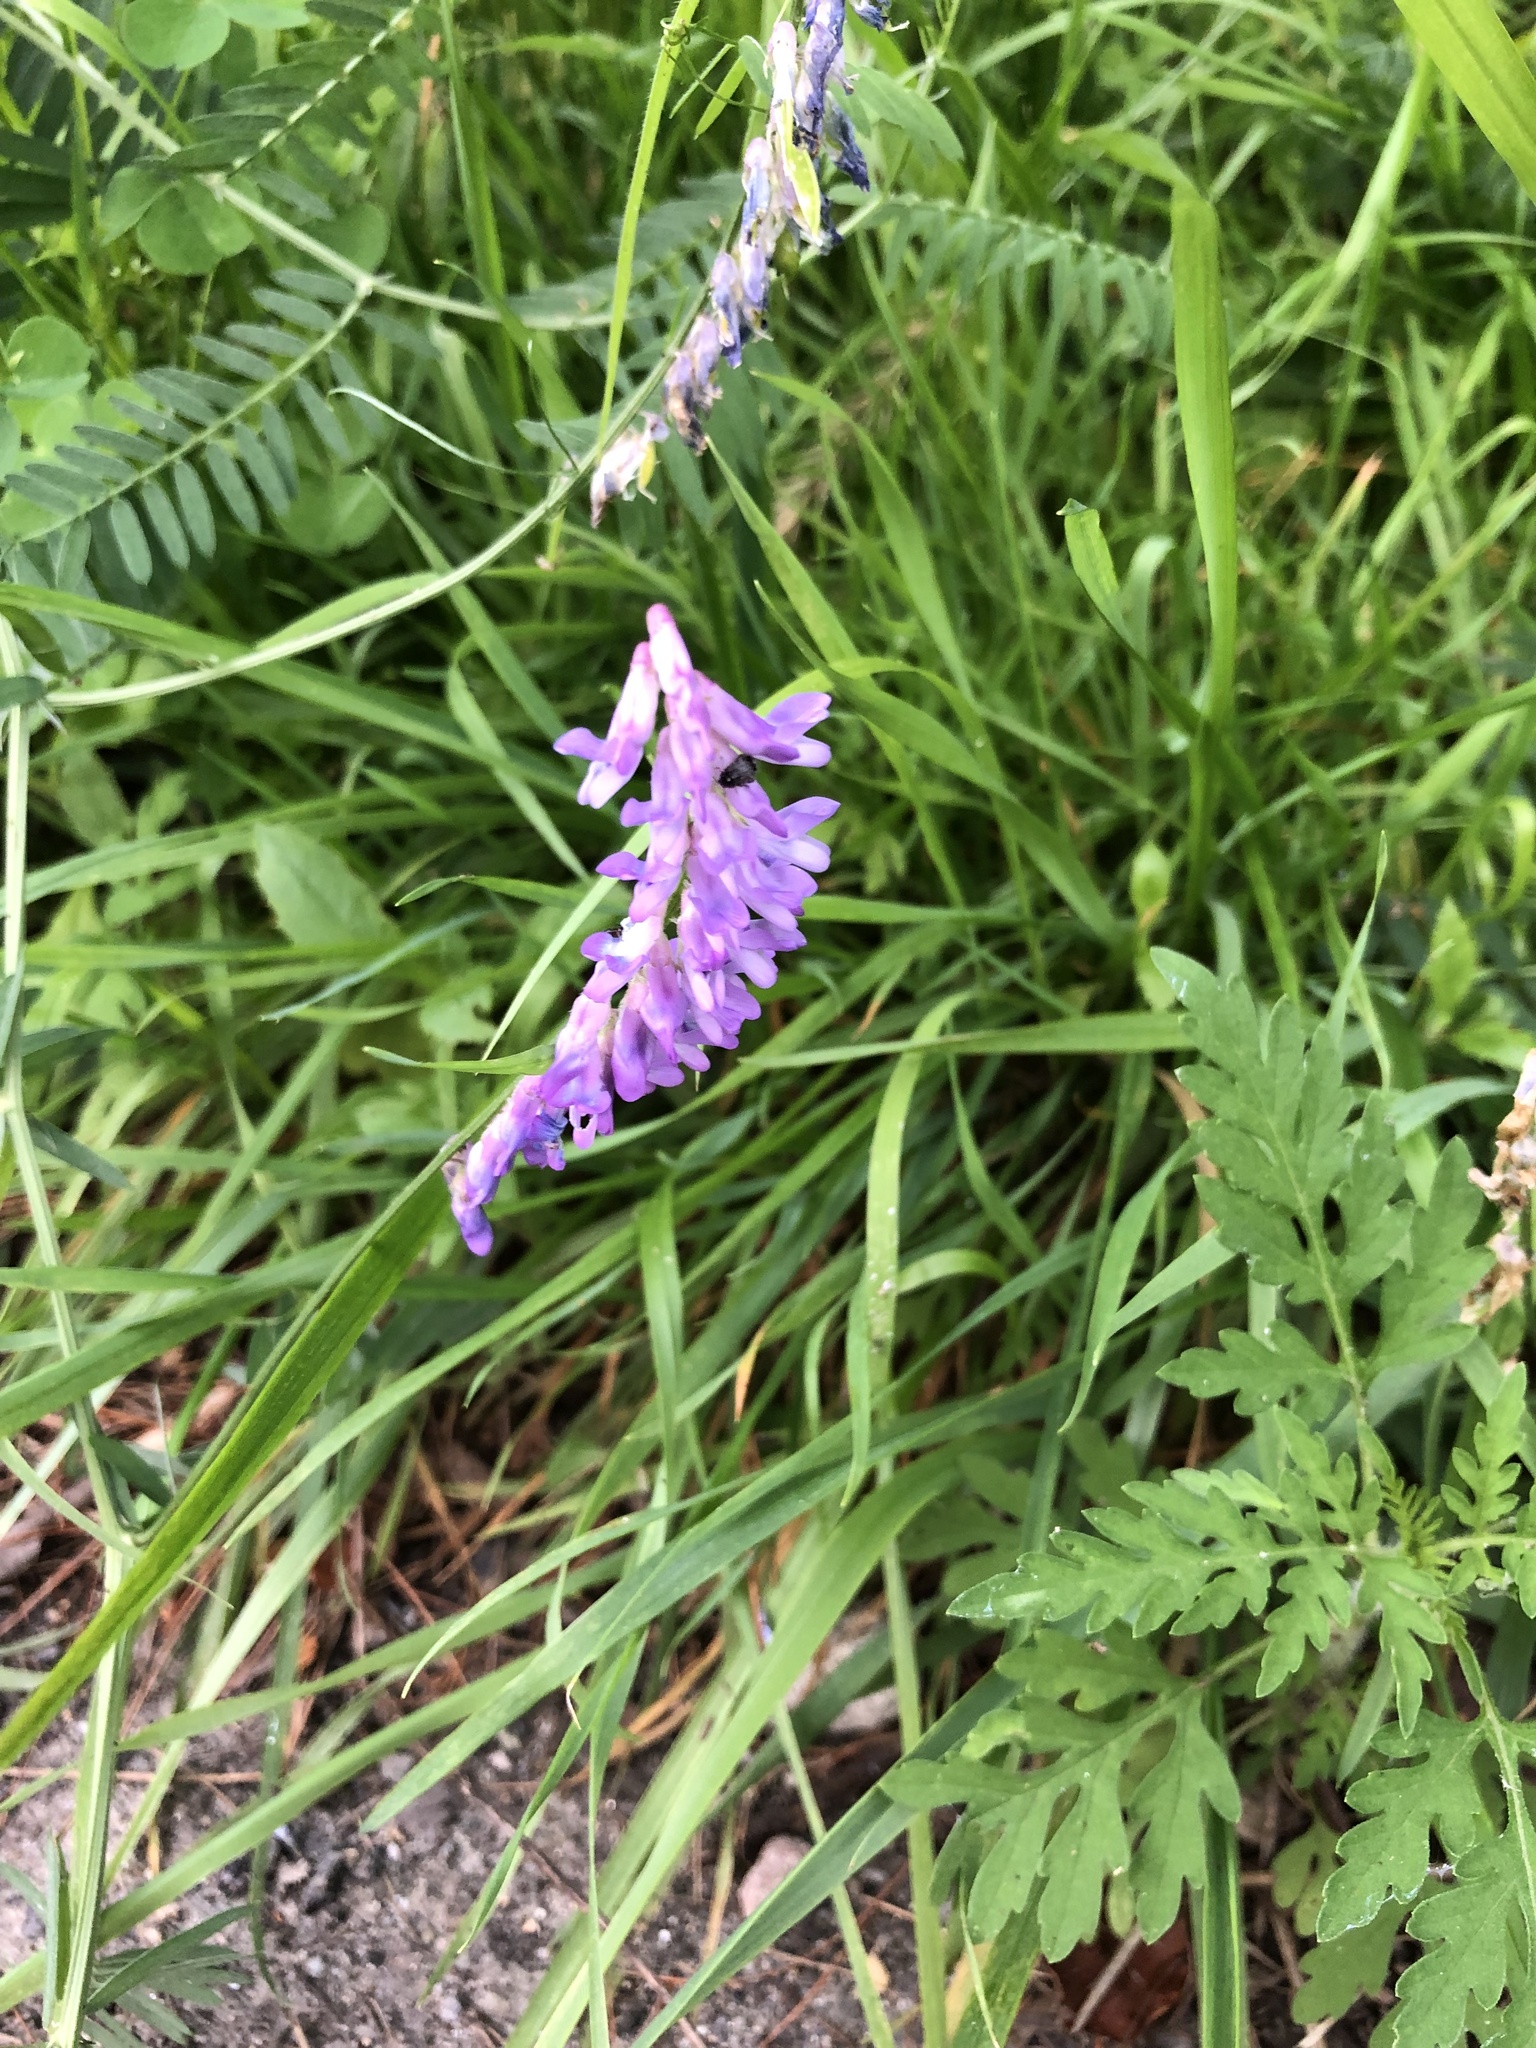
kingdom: Plantae
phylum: Tracheophyta
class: Magnoliopsida
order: Fabales
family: Fabaceae
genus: Vicia
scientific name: Vicia cracca
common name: Bird vetch
